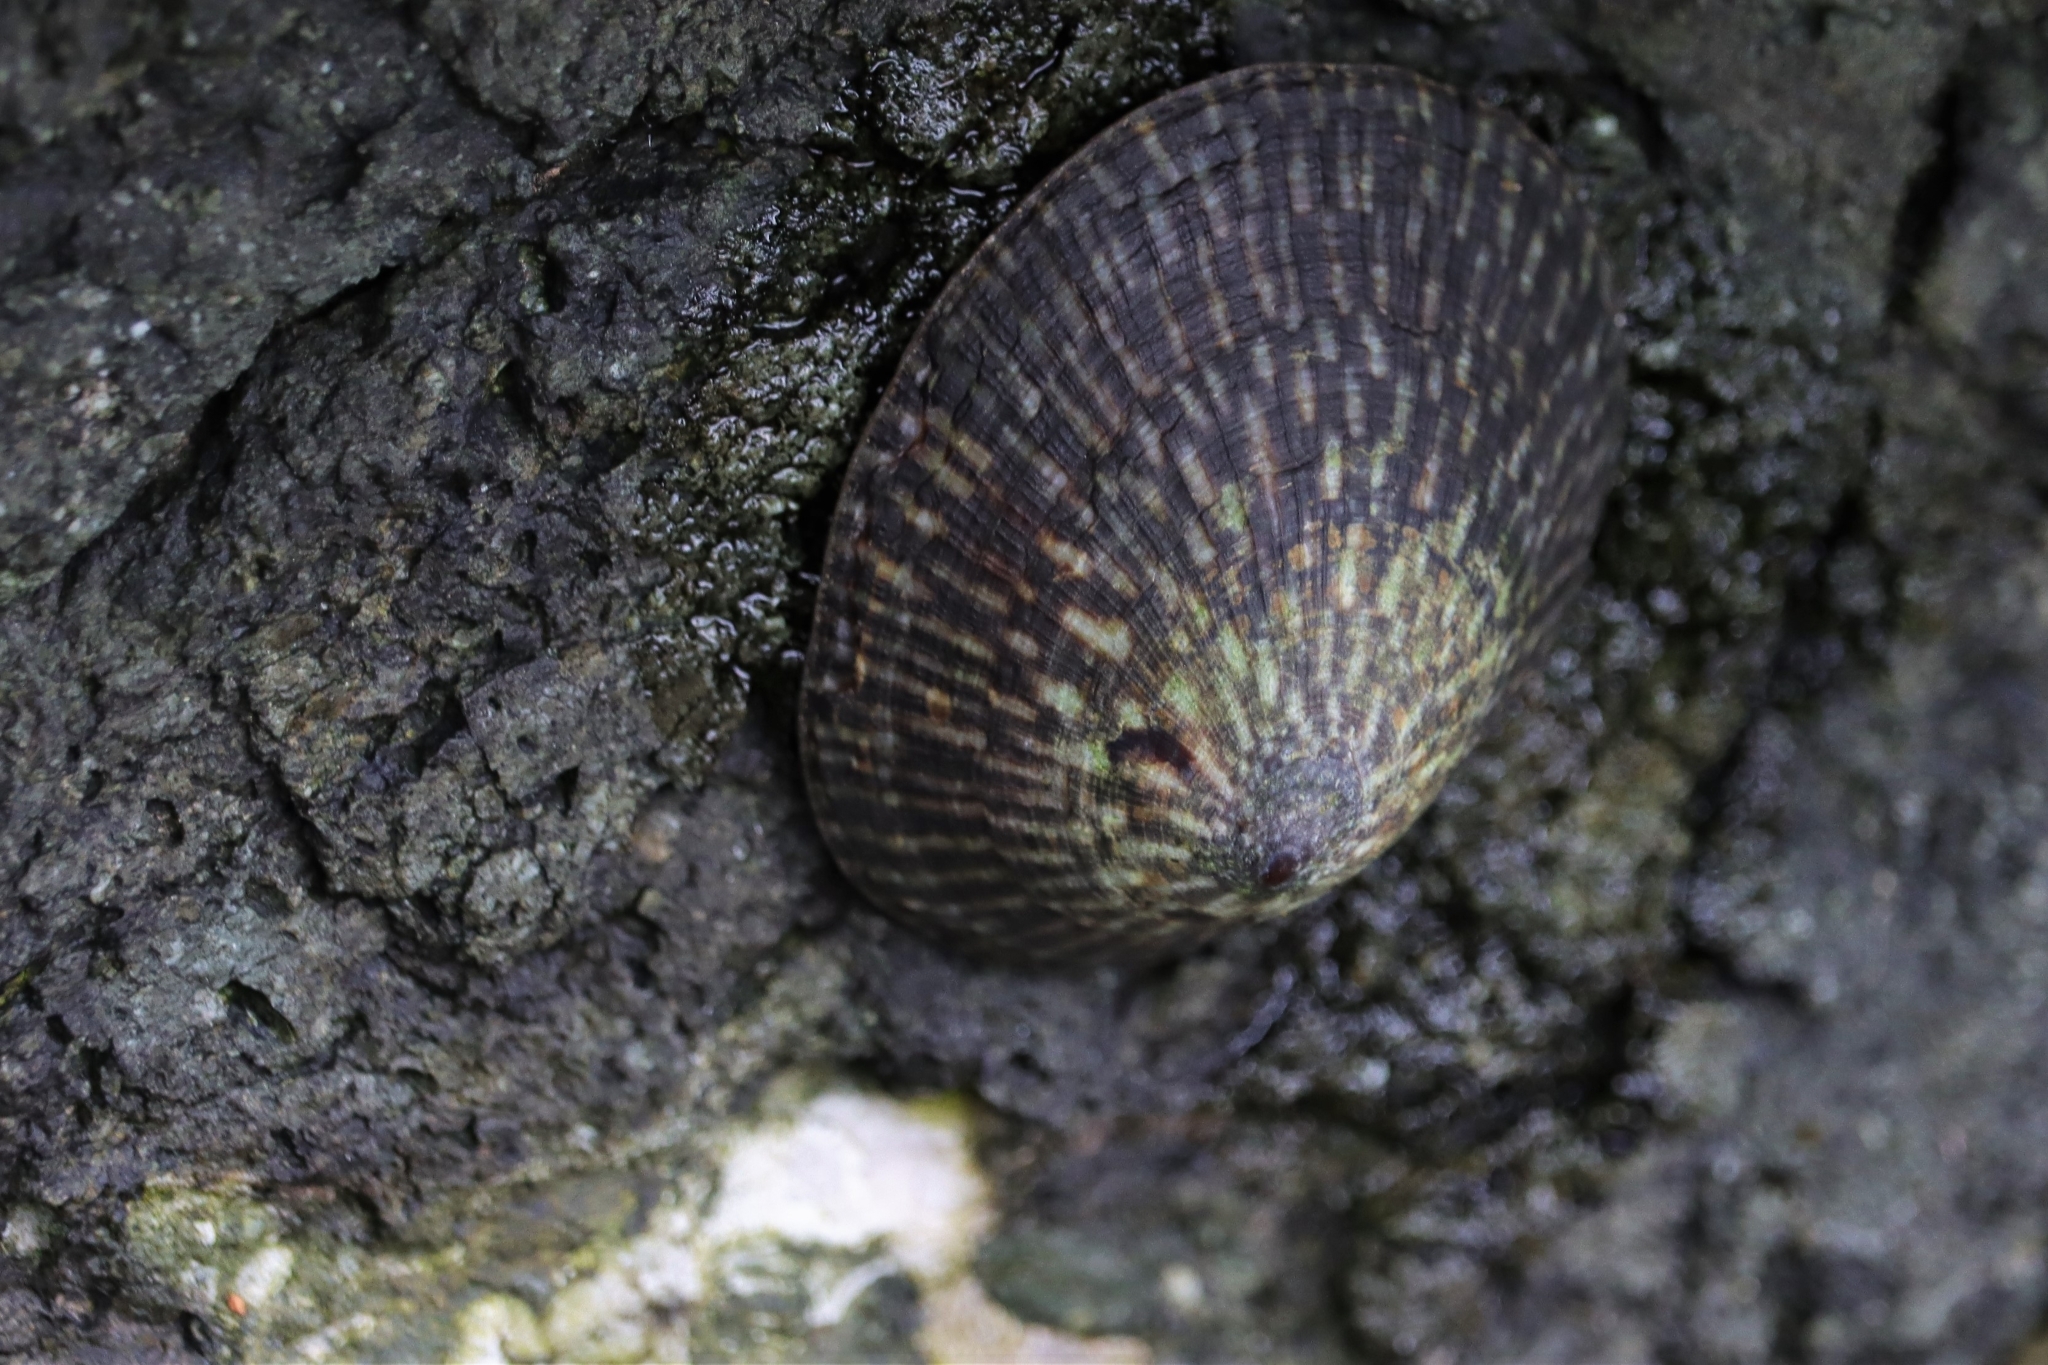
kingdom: Animalia
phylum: Mollusca
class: Gastropoda
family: Lottiidae
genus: Lottia
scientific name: Lottia persona
